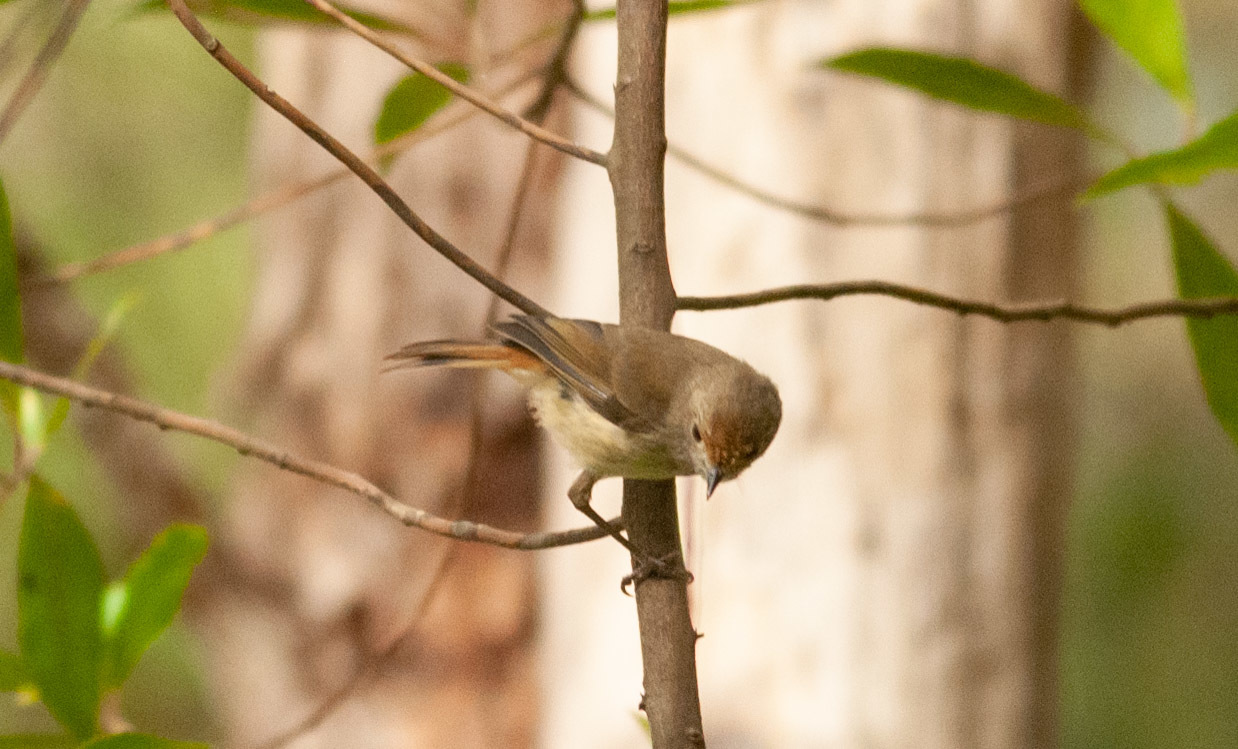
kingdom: Animalia
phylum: Chordata
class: Aves
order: Passeriformes
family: Acanthizidae
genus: Acanthiza
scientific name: Acanthiza pusilla
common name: Brown thornbill
